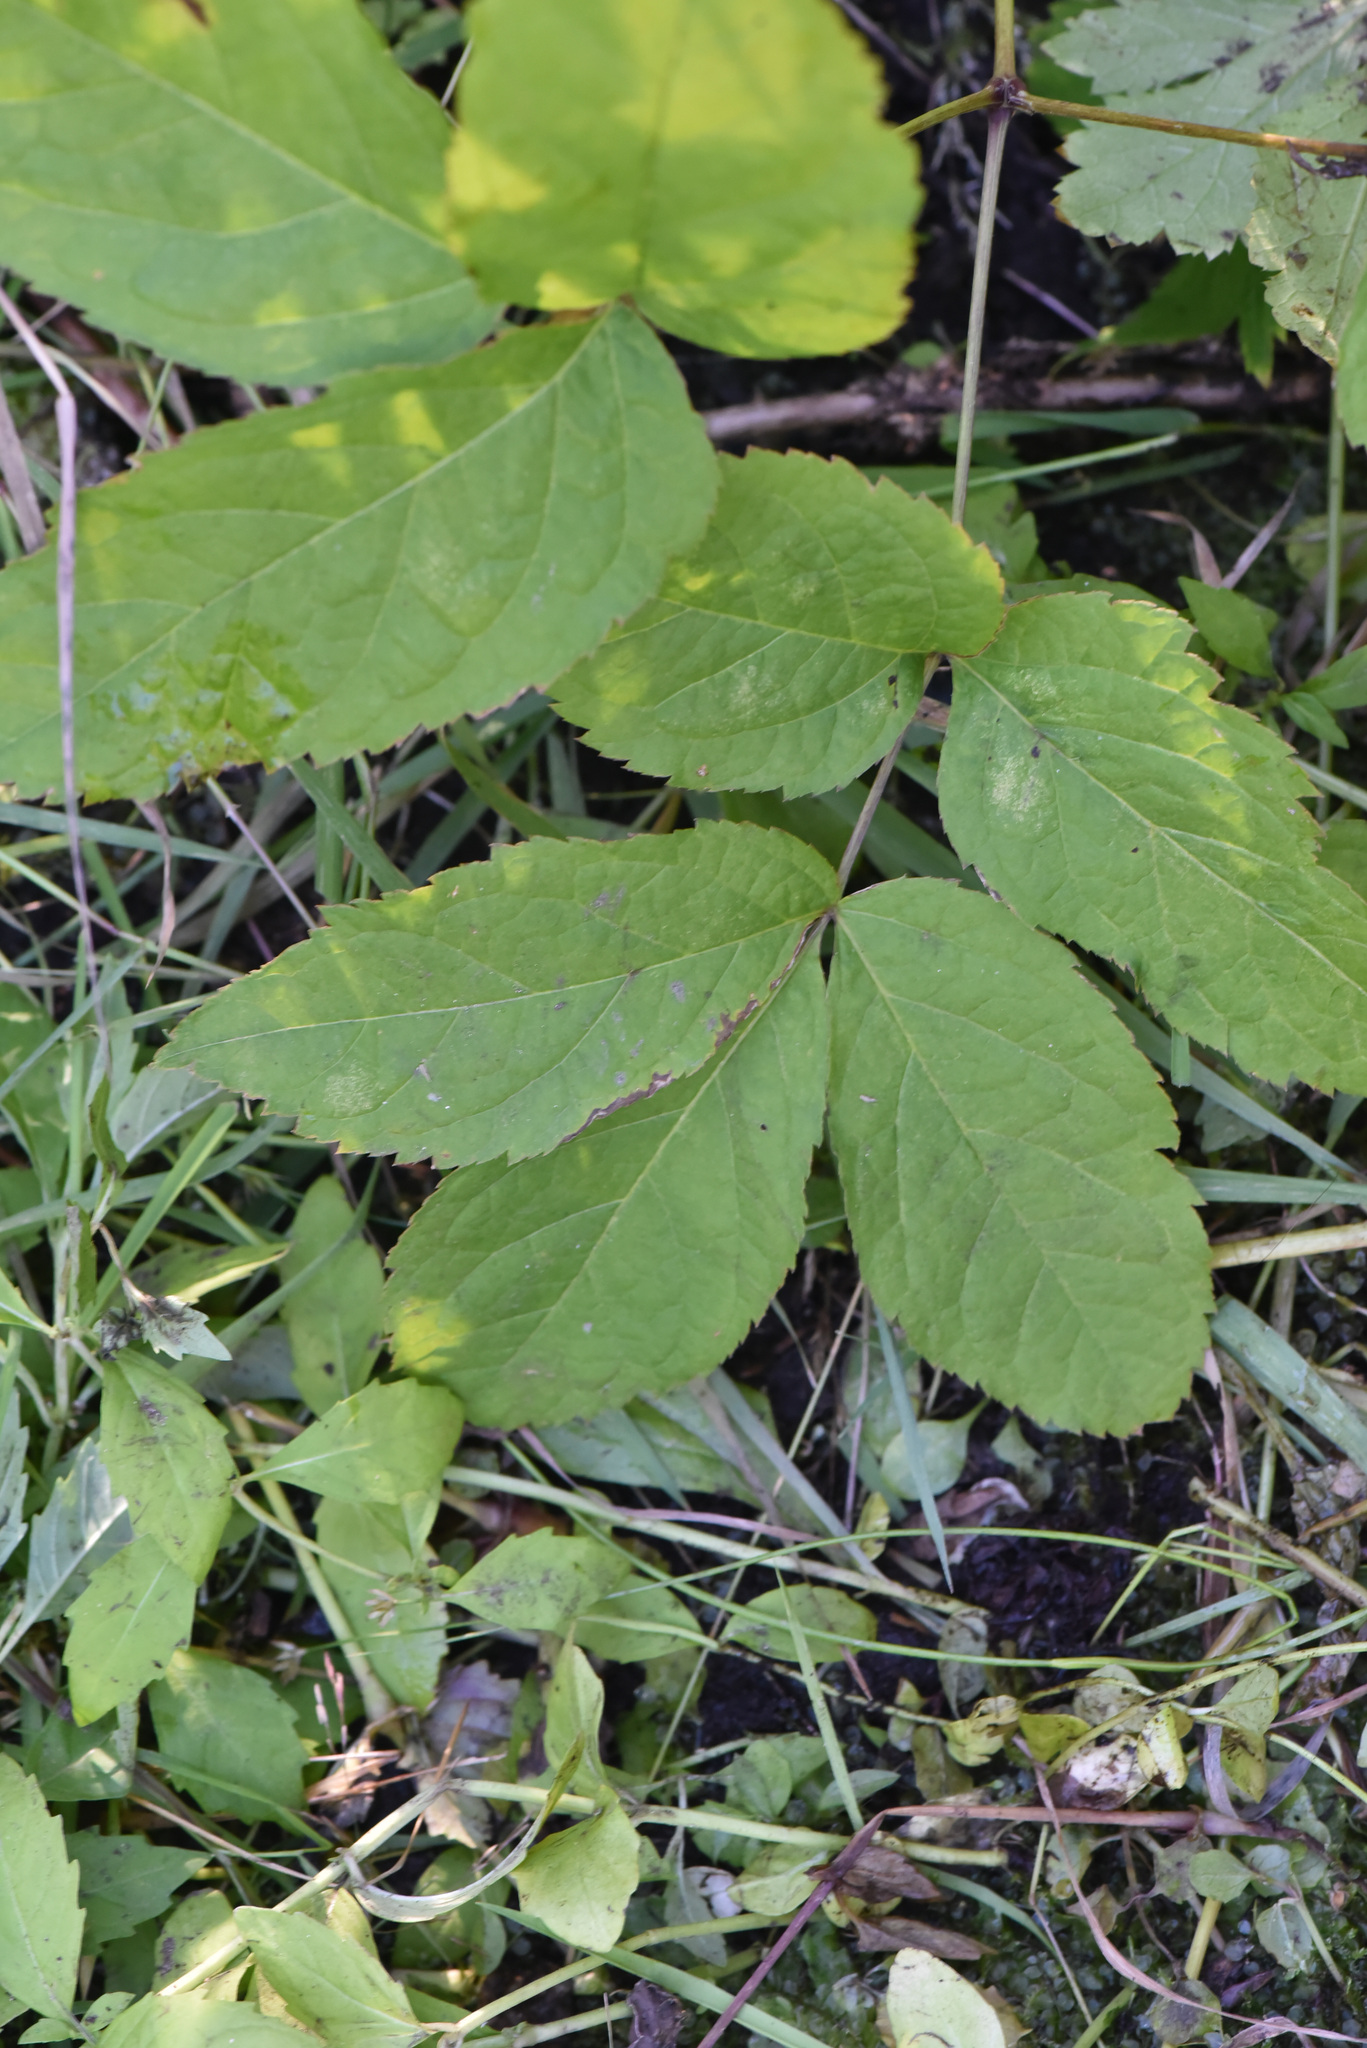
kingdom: Plantae
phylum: Tracheophyta
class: Magnoliopsida
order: Apiales
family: Araliaceae
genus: Aralia
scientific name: Aralia nudicaulis
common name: Wild sarsaparilla
